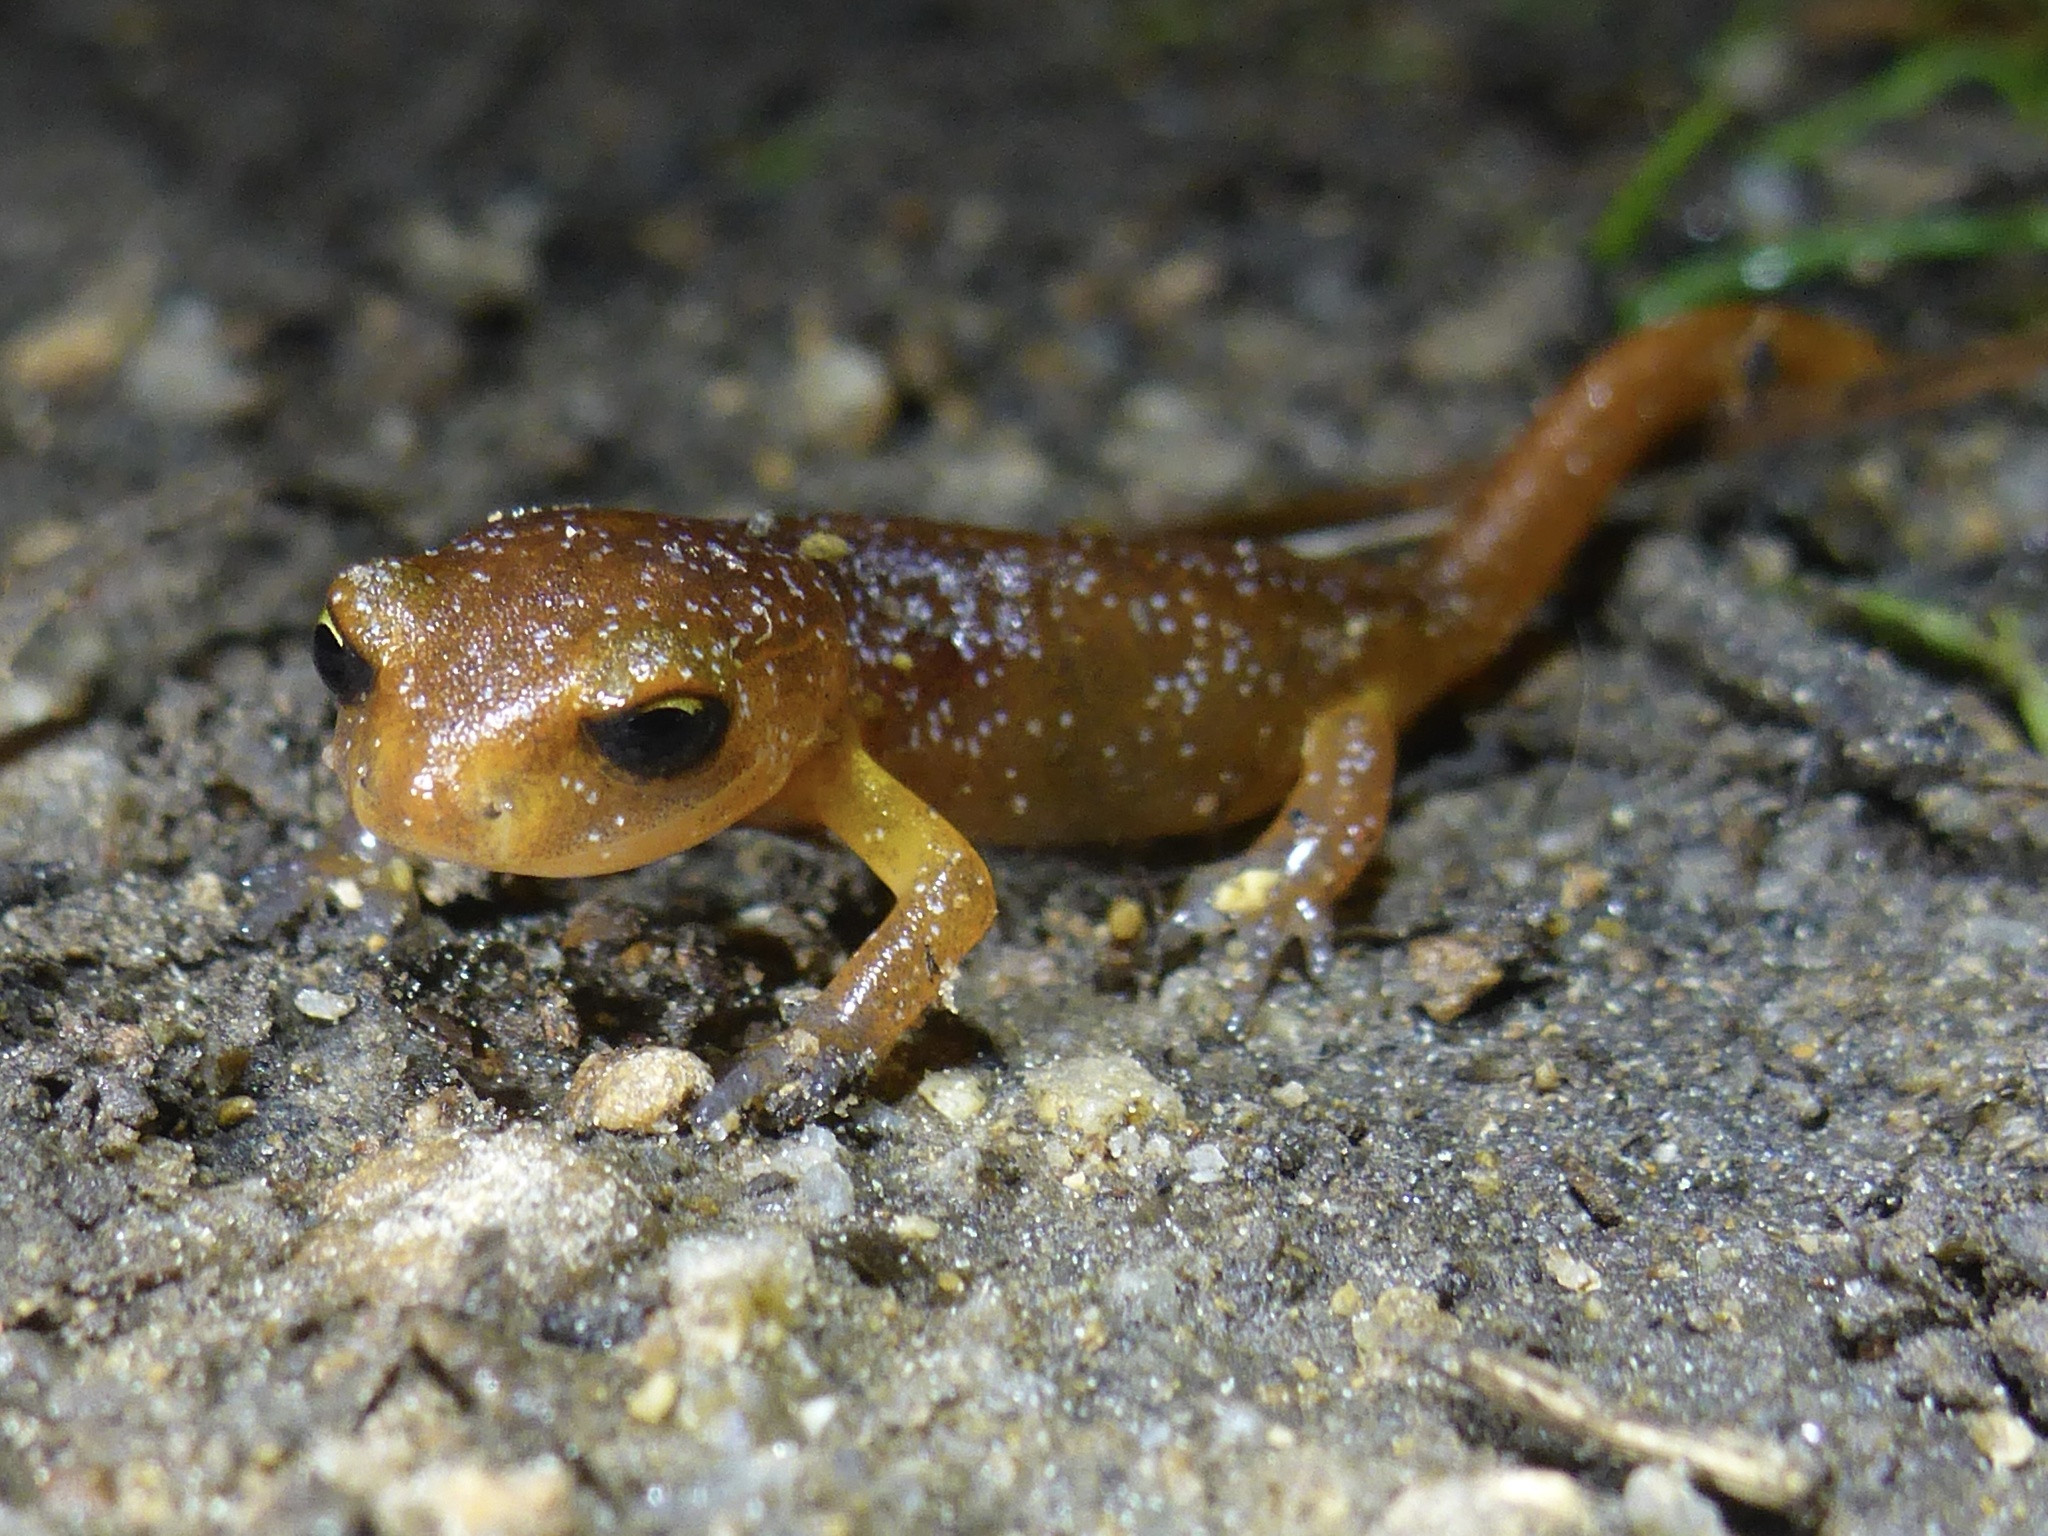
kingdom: Animalia
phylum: Chordata
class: Amphibia
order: Caudata
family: Plethodontidae
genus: Ensatina
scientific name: Ensatina eschscholtzii
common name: Ensatina
